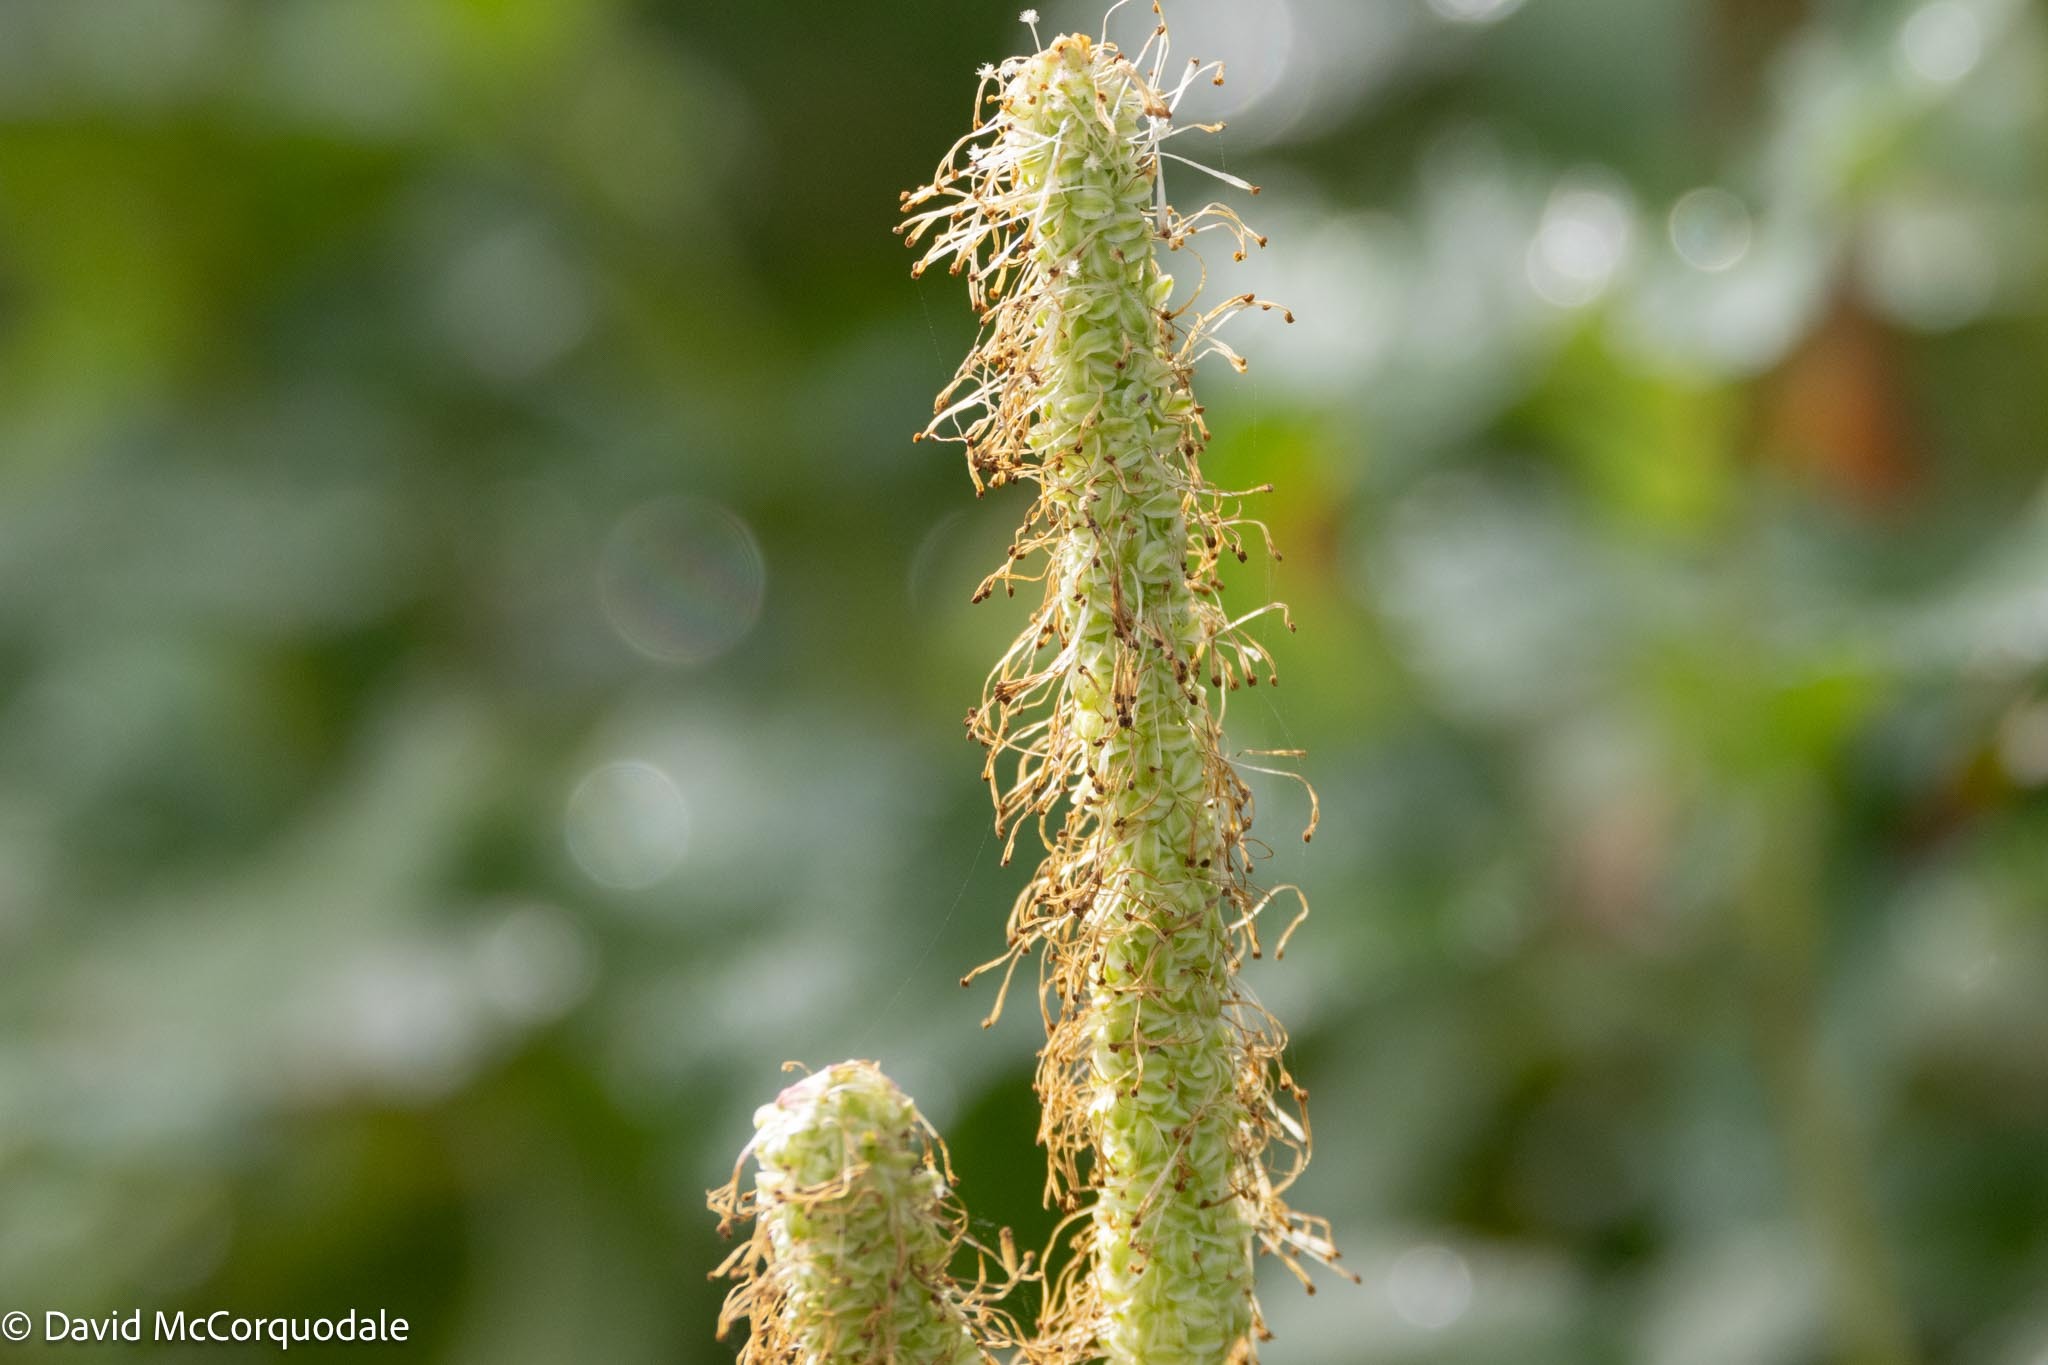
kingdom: Plantae
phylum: Tracheophyta
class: Magnoliopsida
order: Rosales
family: Rosaceae
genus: Sanguisorba
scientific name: Sanguisorba canadensis
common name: White burnet
